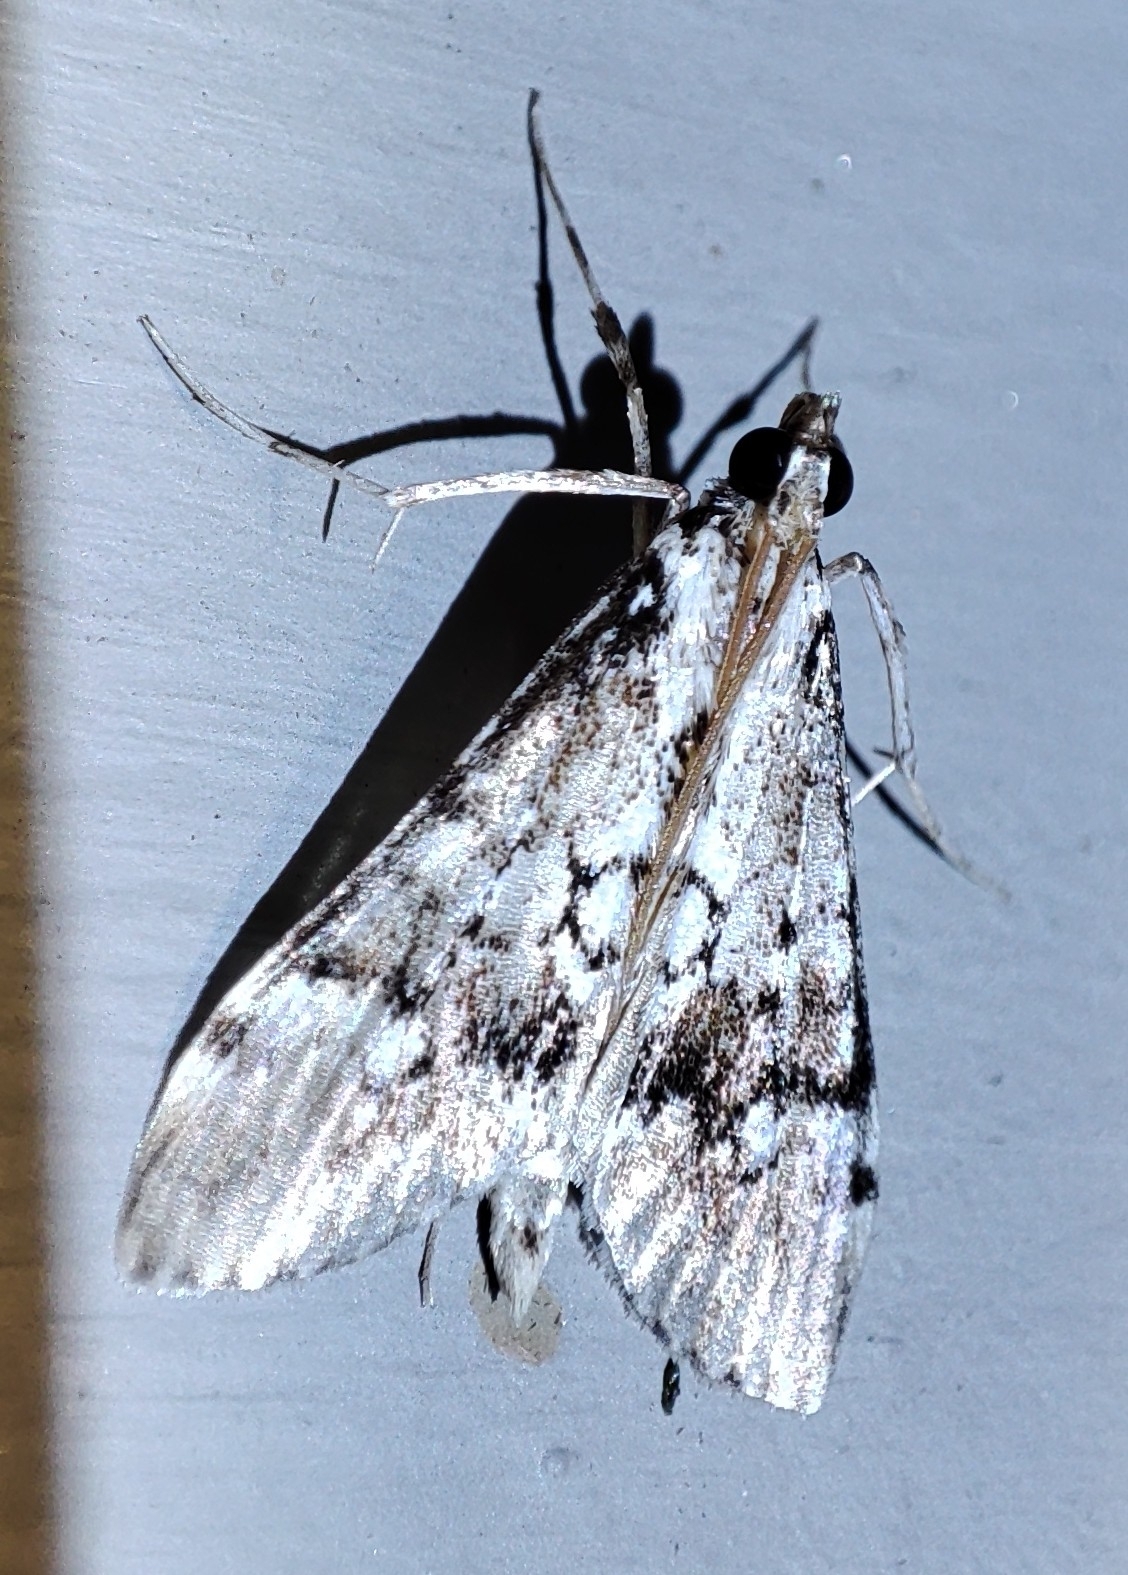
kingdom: Animalia
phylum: Arthropoda
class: Insecta
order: Lepidoptera
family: Crambidae
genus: Paschiodes
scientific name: Paschiodes mesoleucalis
